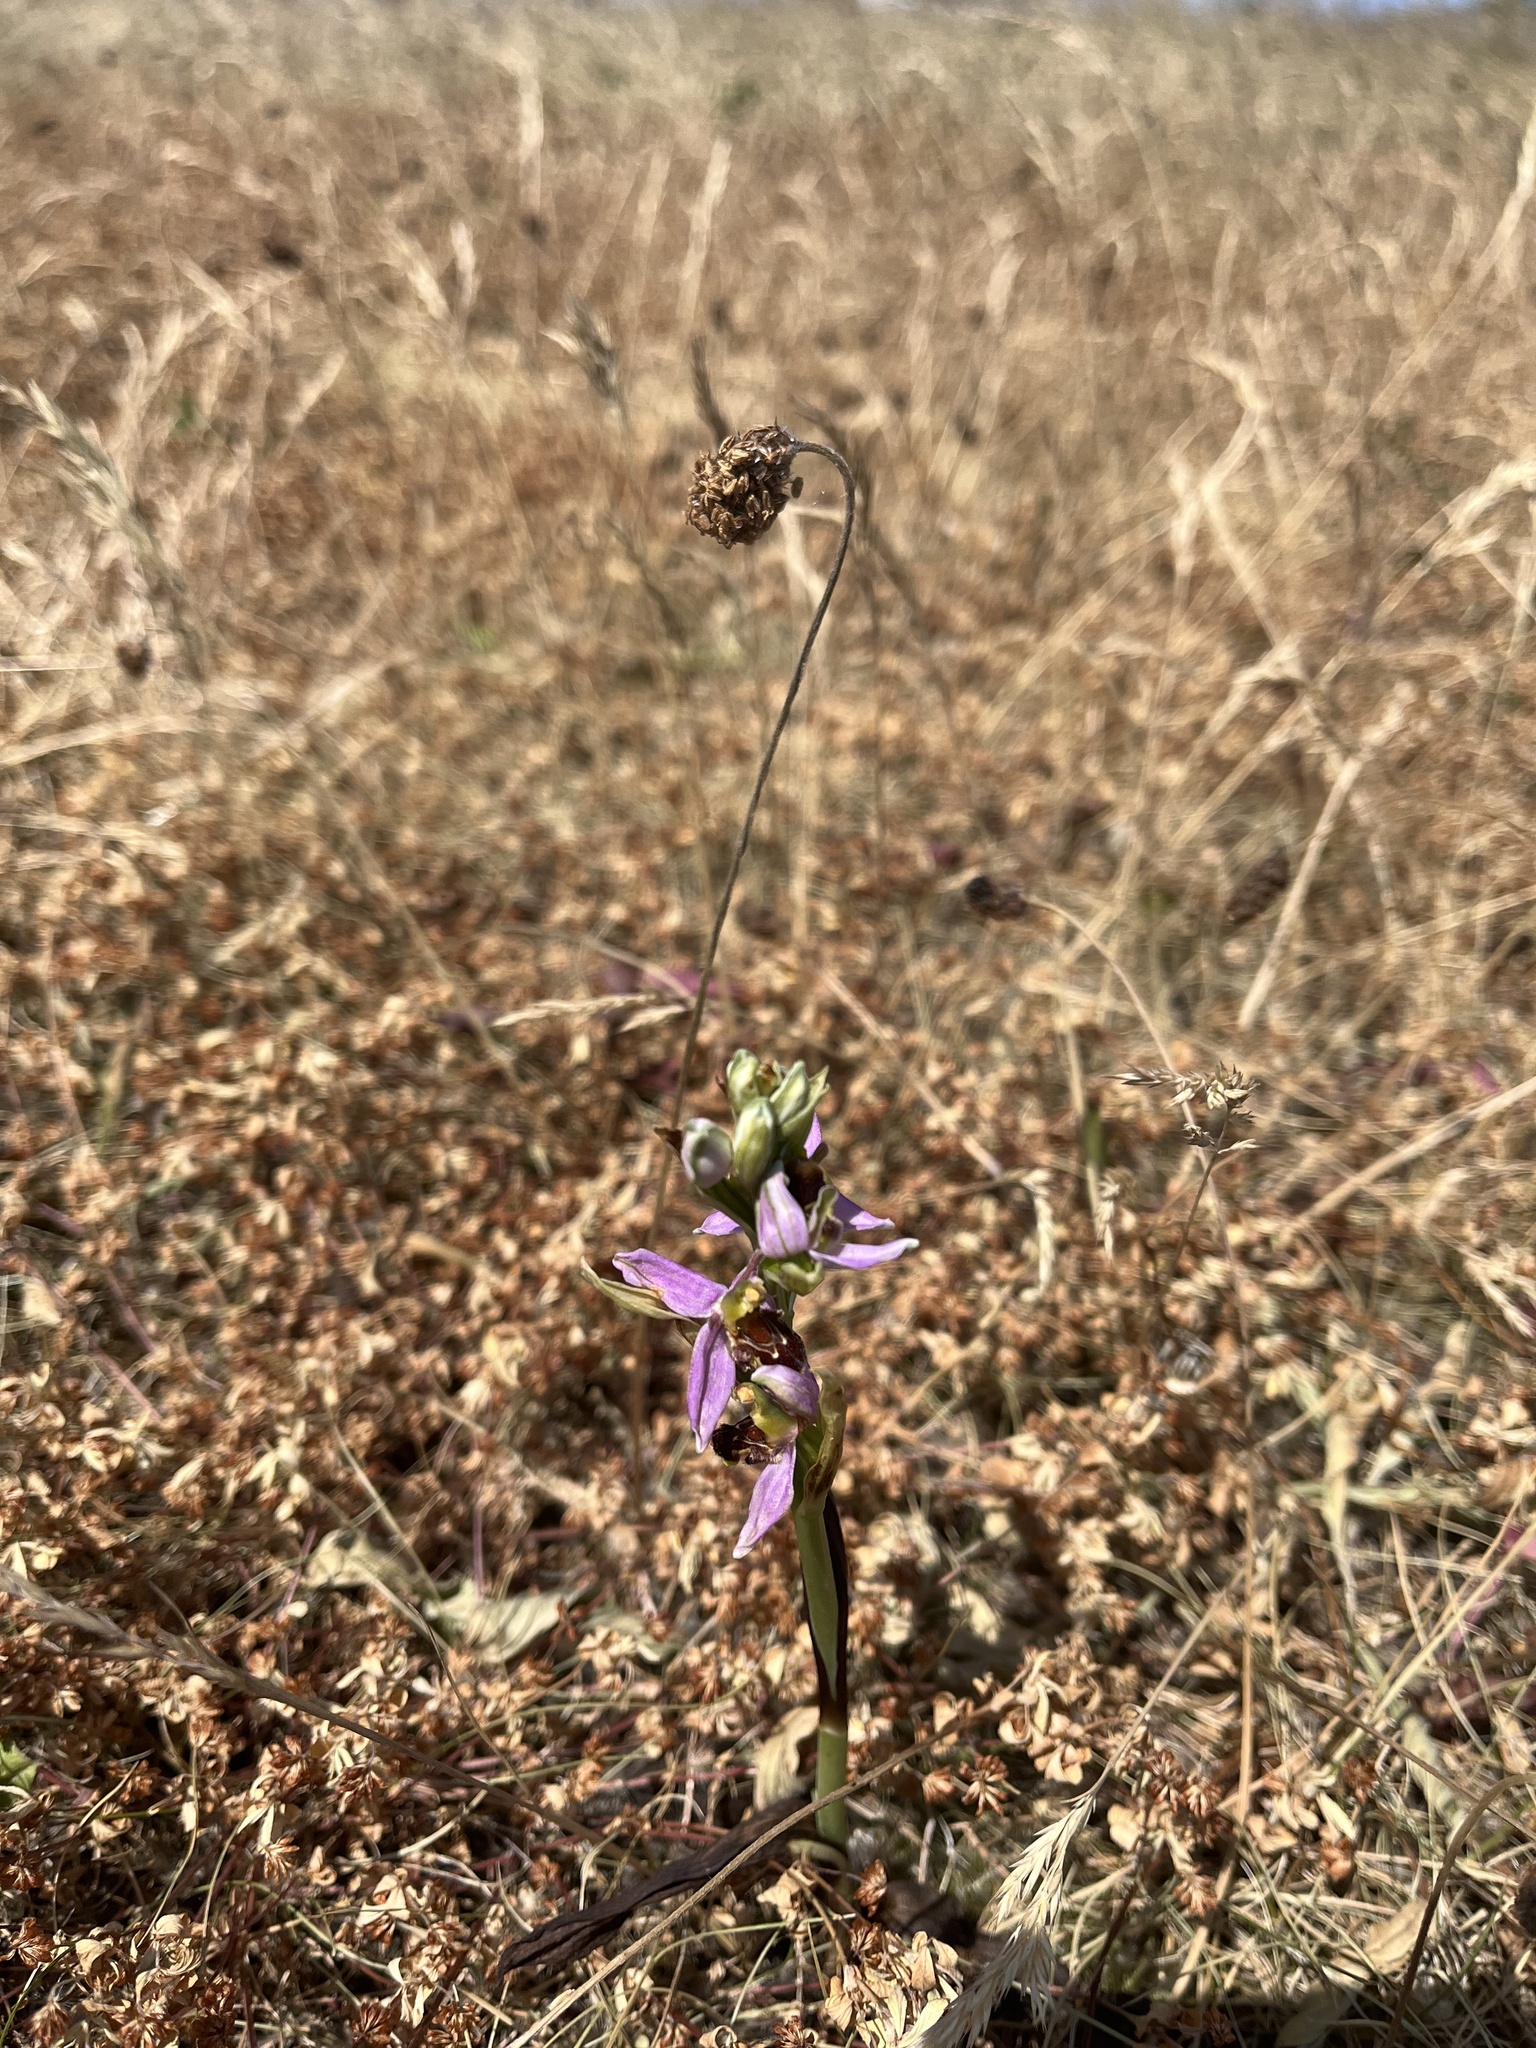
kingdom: Plantae
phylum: Tracheophyta
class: Liliopsida
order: Asparagales
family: Orchidaceae
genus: Ophrys
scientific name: Ophrys apifera
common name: Bee orchid
